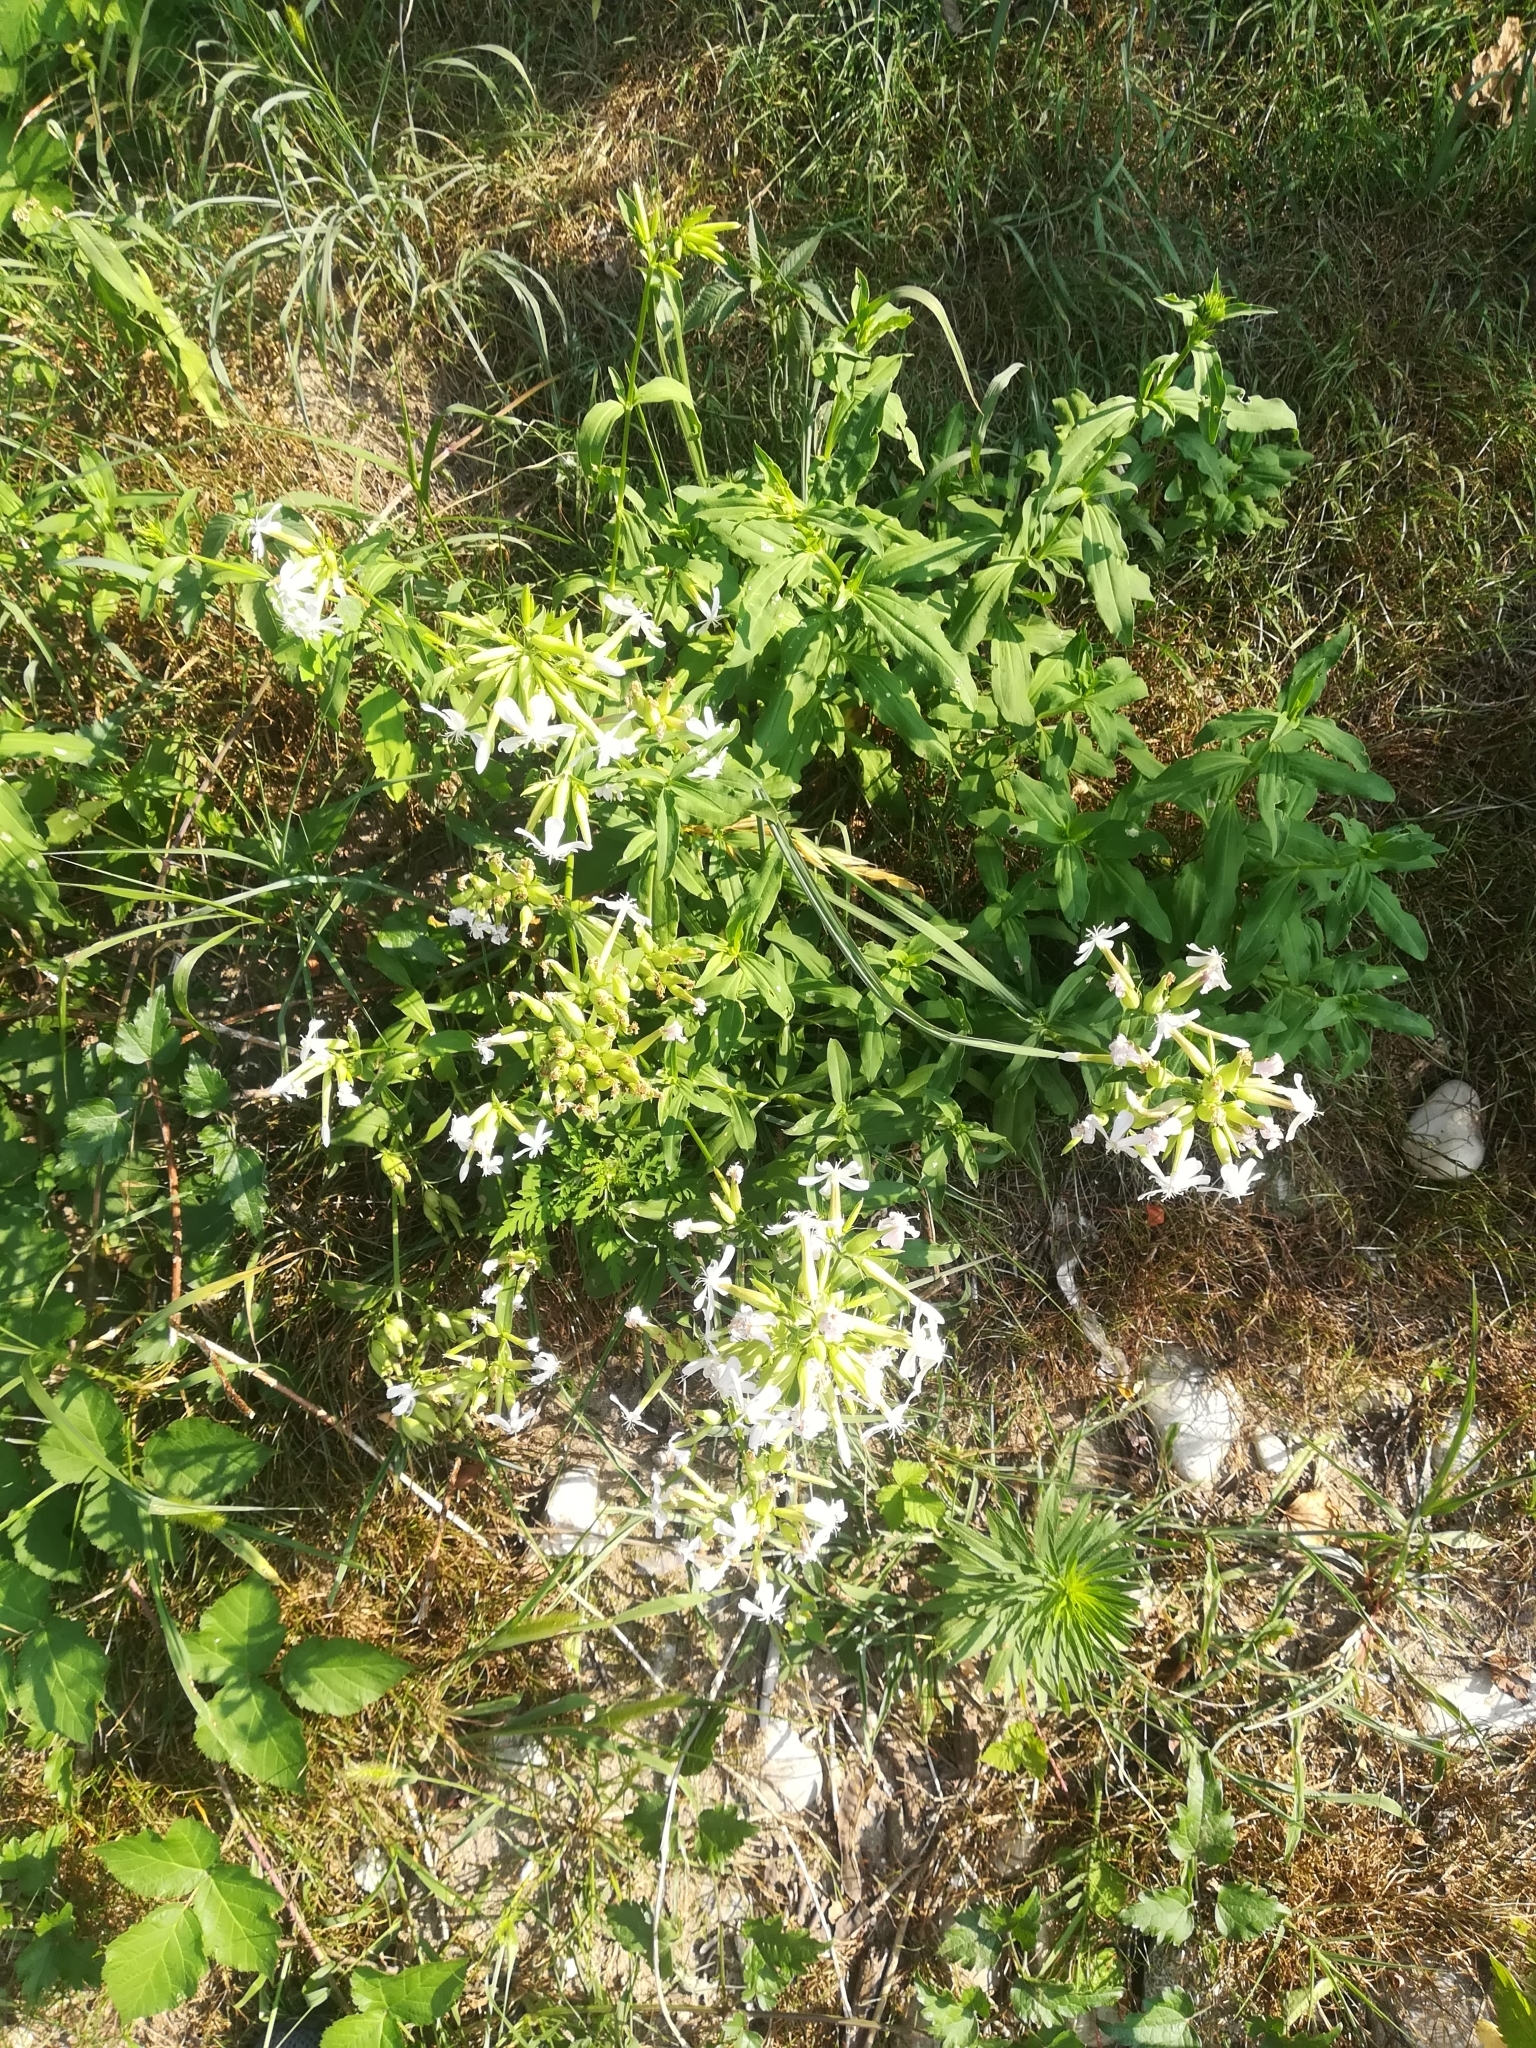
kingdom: Plantae
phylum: Tracheophyta
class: Magnoliopsida
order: Caryophyllales
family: Caryophyllaceae
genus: Saponaria
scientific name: Saponaria officinalis
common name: Soapwort
